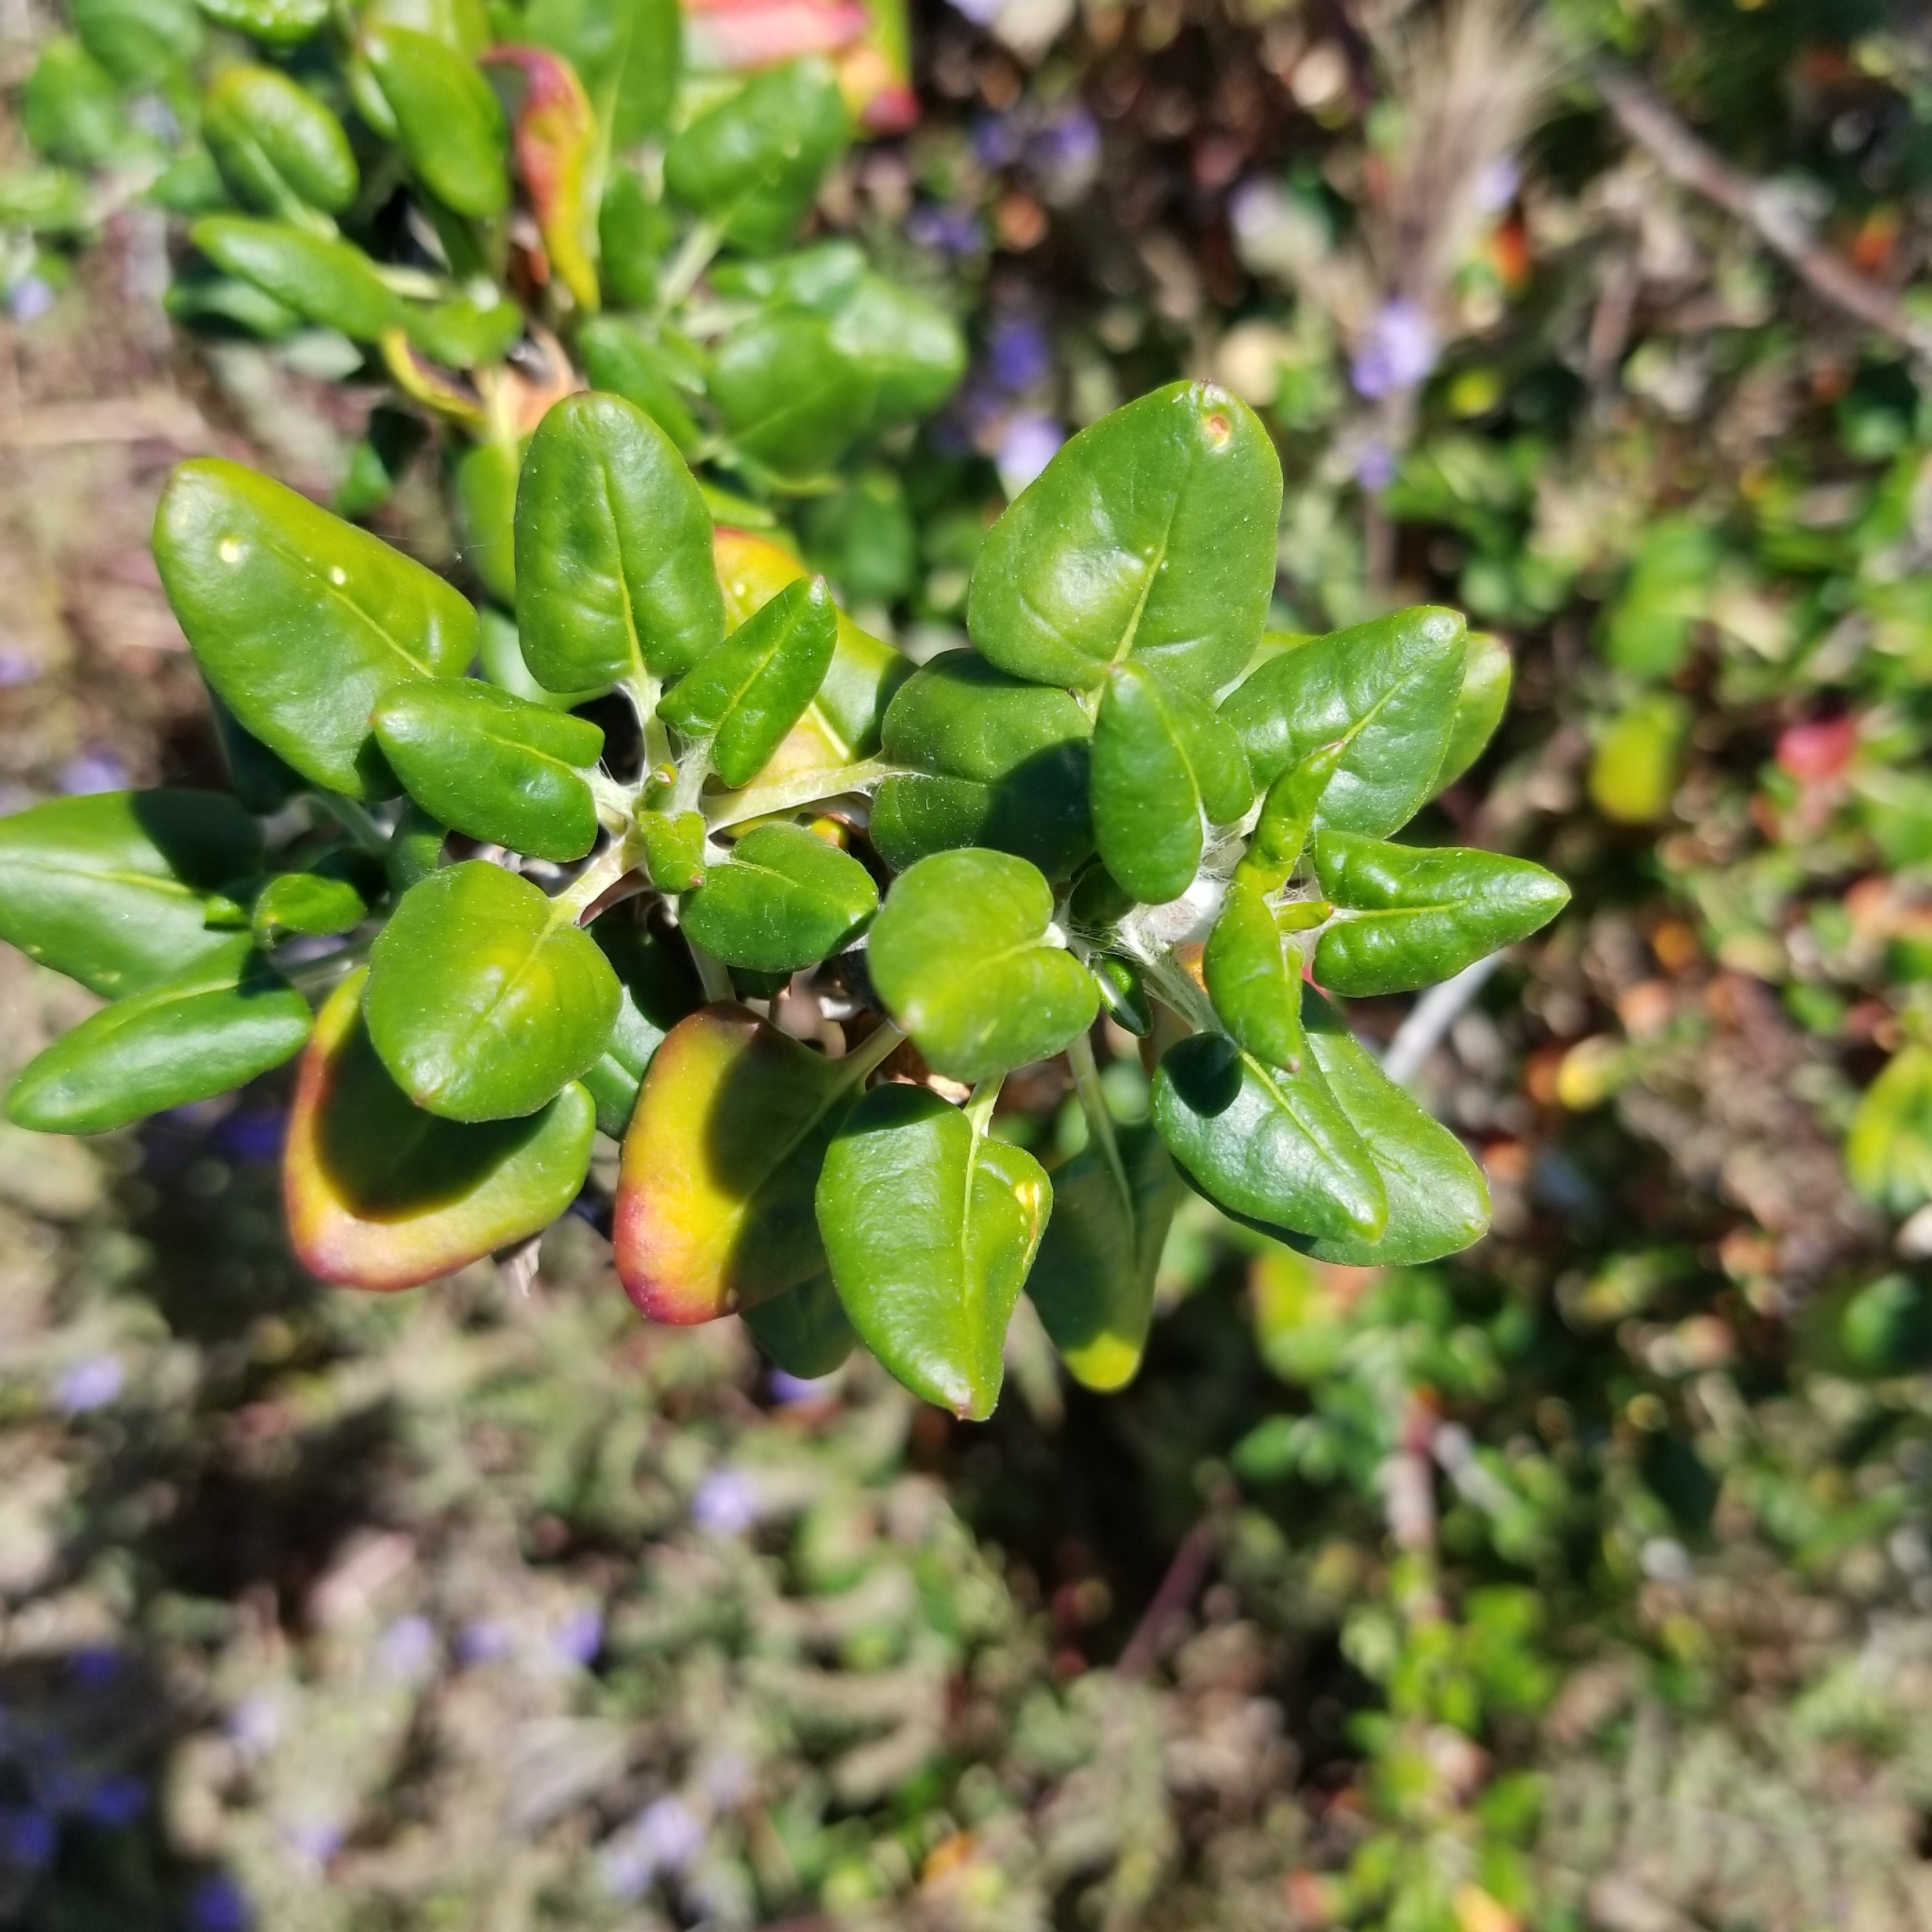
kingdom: Plantae
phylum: Tracheophyta
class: Magnoliopsida
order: Caryophyllales
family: Polygonaceae
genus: Eriogonum
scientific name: Eriogonum parvifolium
